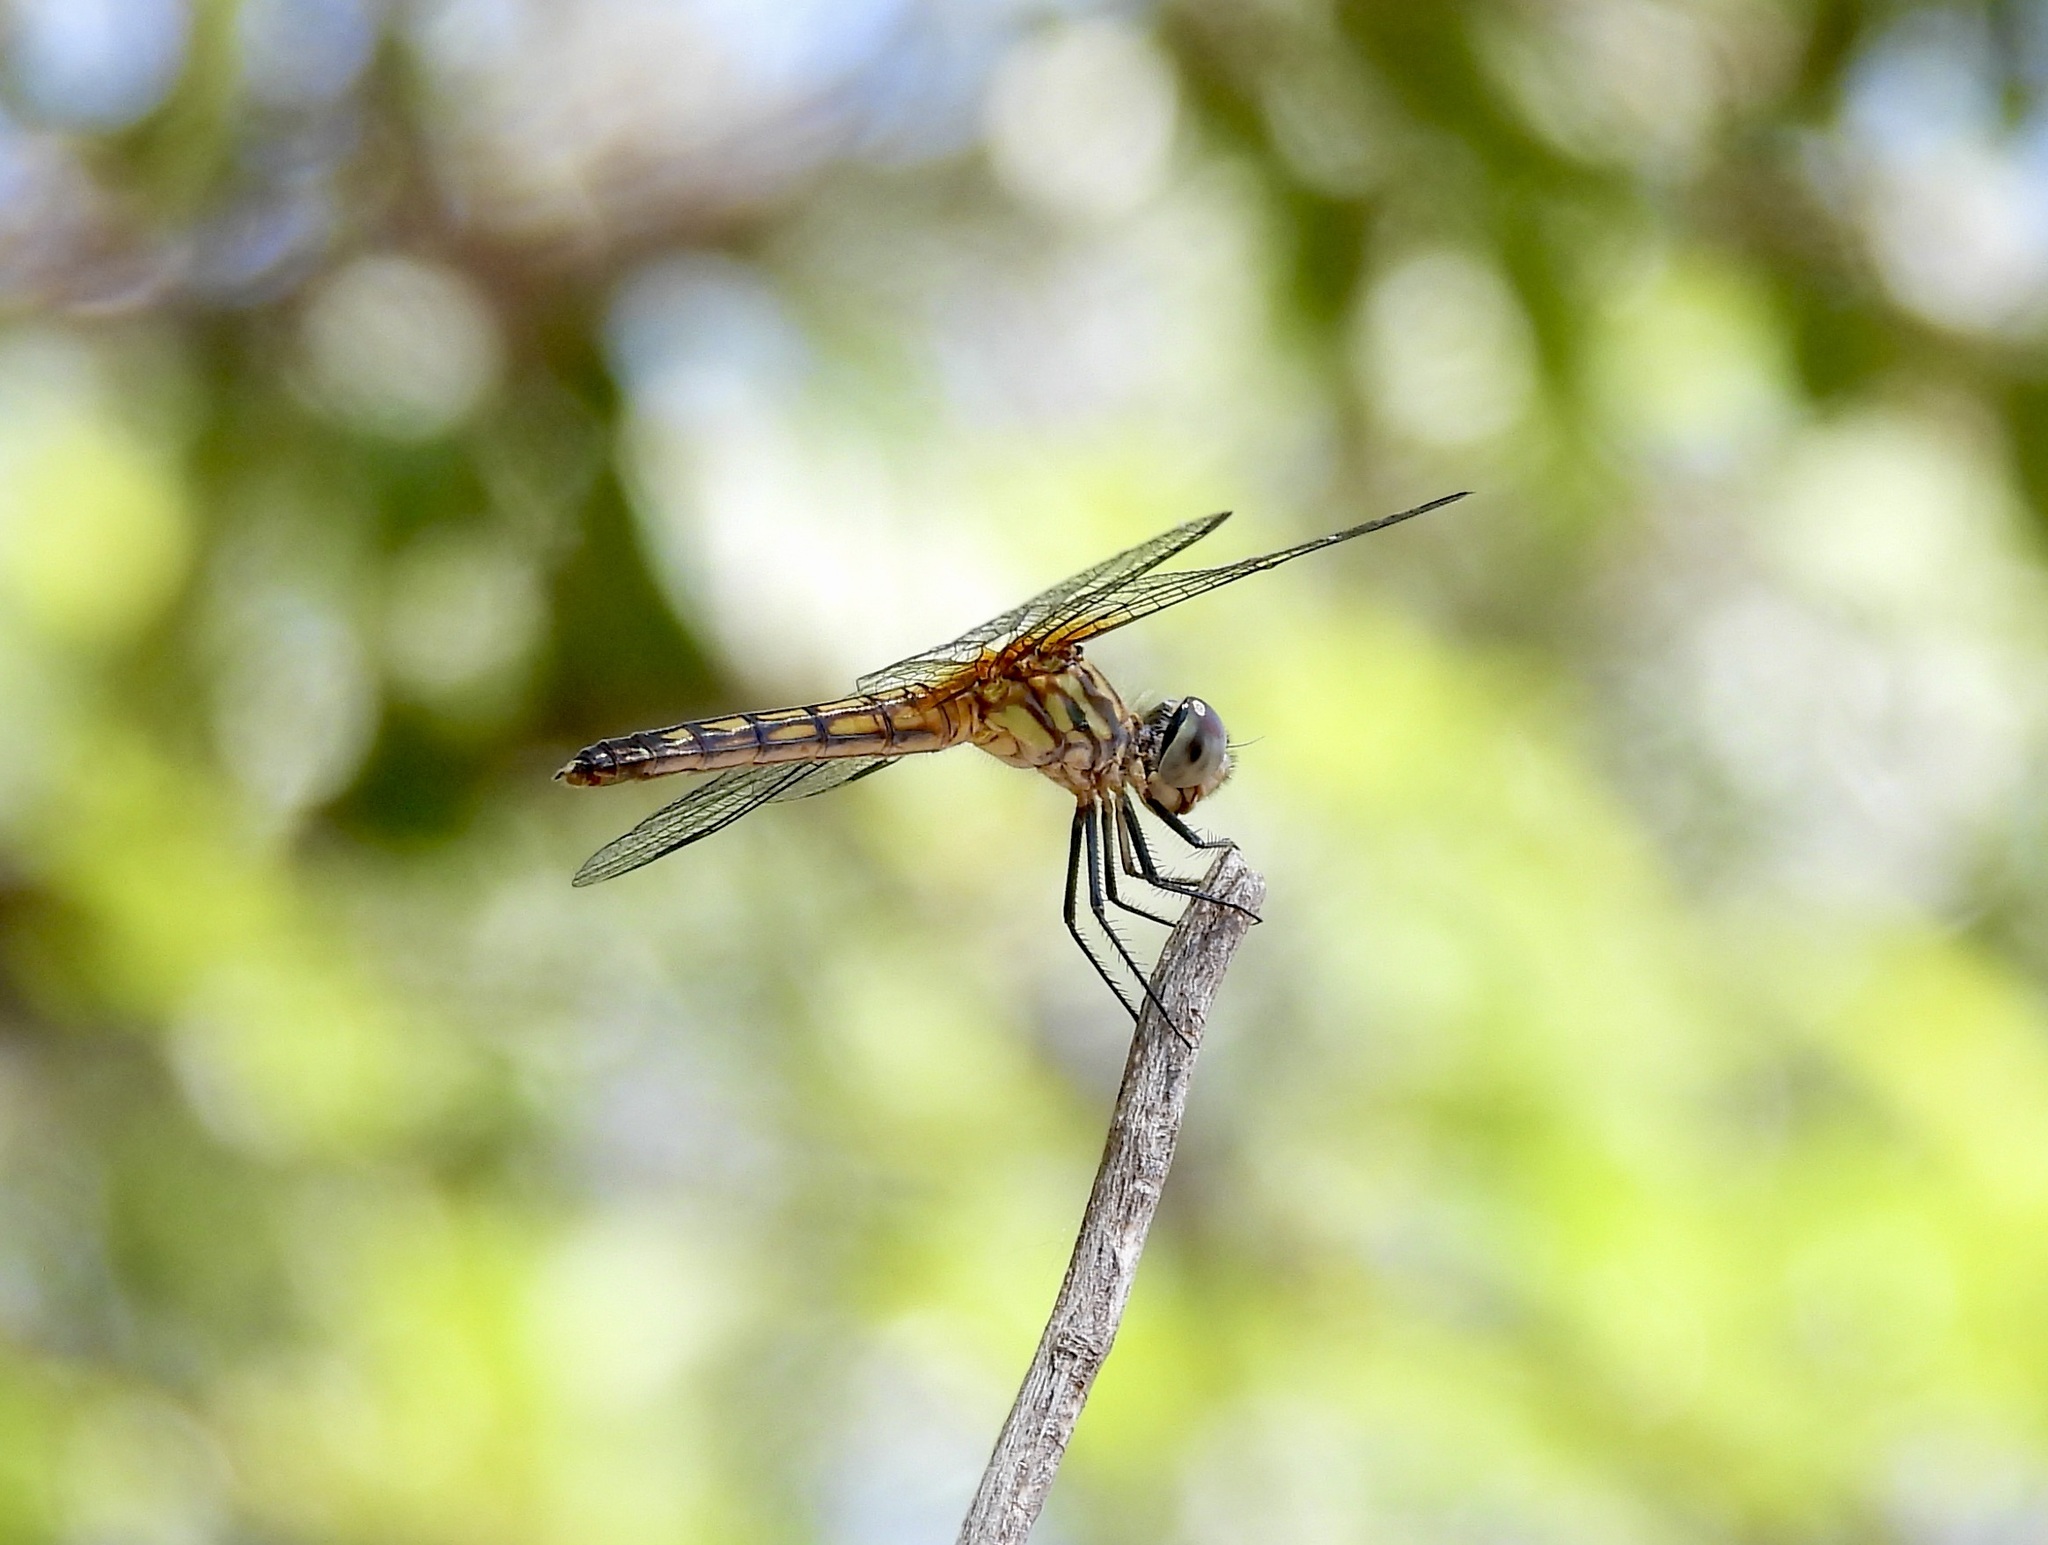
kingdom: Animalia
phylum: Arthropoda
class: Insecta
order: Odonata
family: Libellulidae
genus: Pachydiplax
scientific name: Pachydiplax longipennis
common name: Blue dasher
